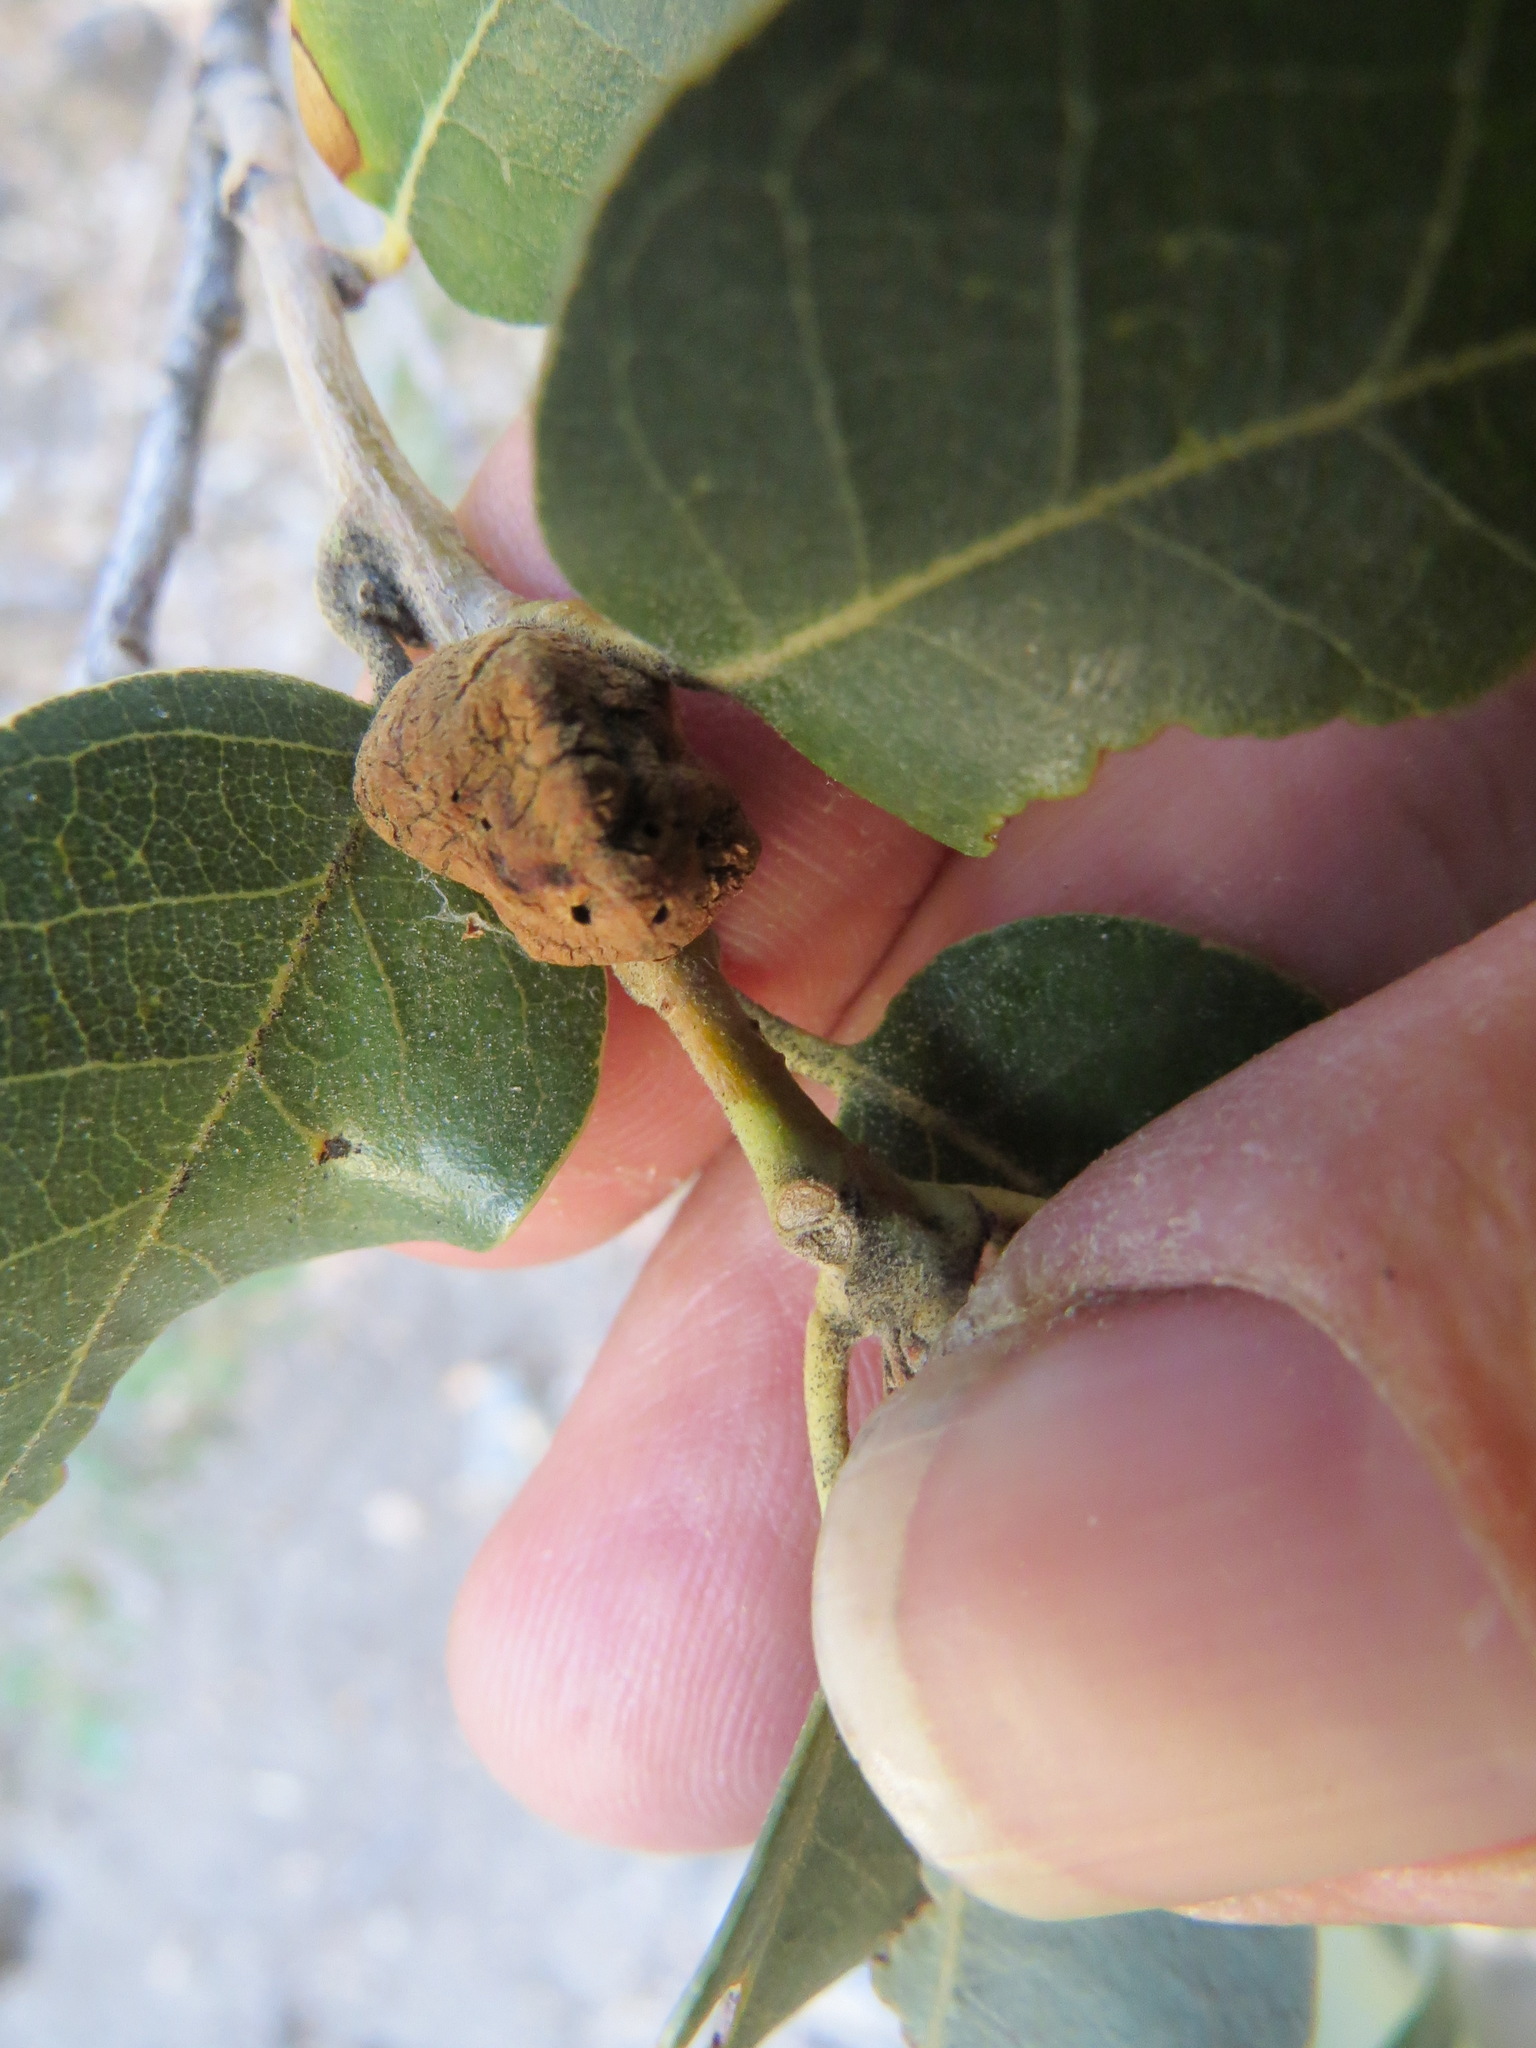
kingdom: Animalia
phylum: Arthropoda
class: Insecta
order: Hymenoptera
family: Cynipidae
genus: Disholandricus
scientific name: Disholandricus
